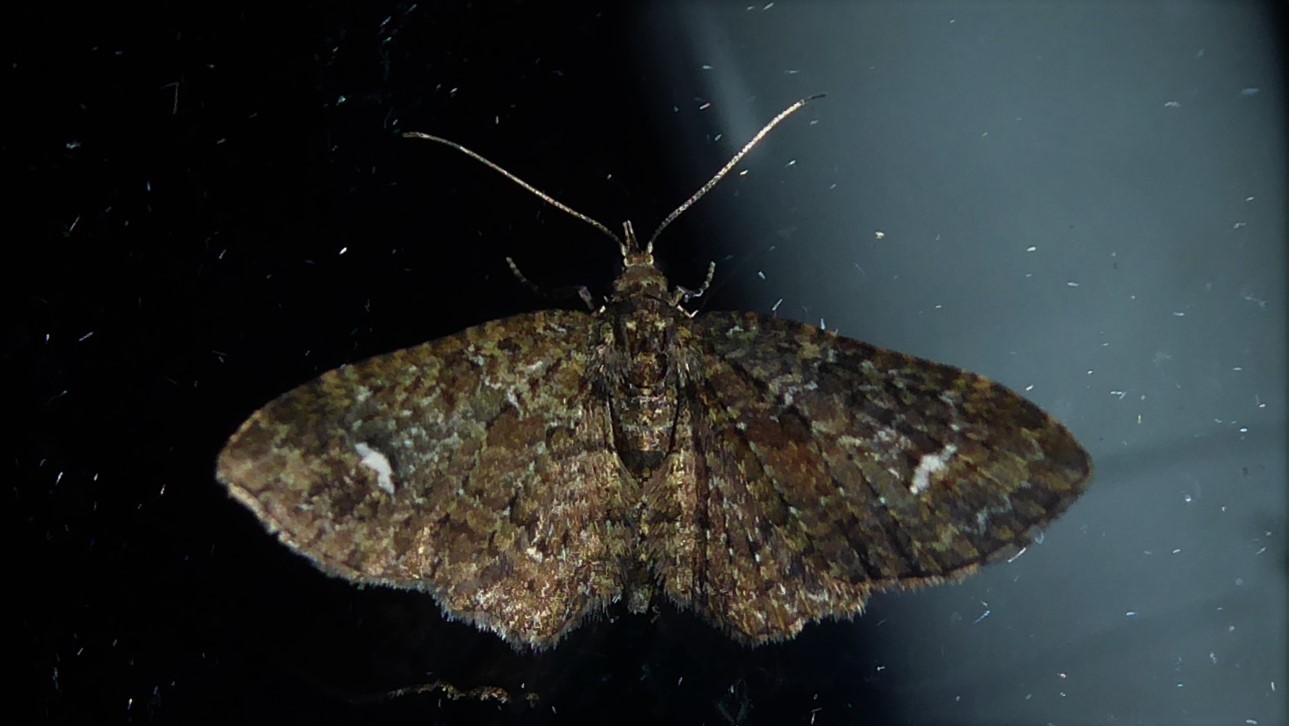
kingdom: Animalia
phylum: Arthropoda
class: Insecta
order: Lepidoptera
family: Geometridae
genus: Pasiphilodes
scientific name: Pasiphilodes testulata
